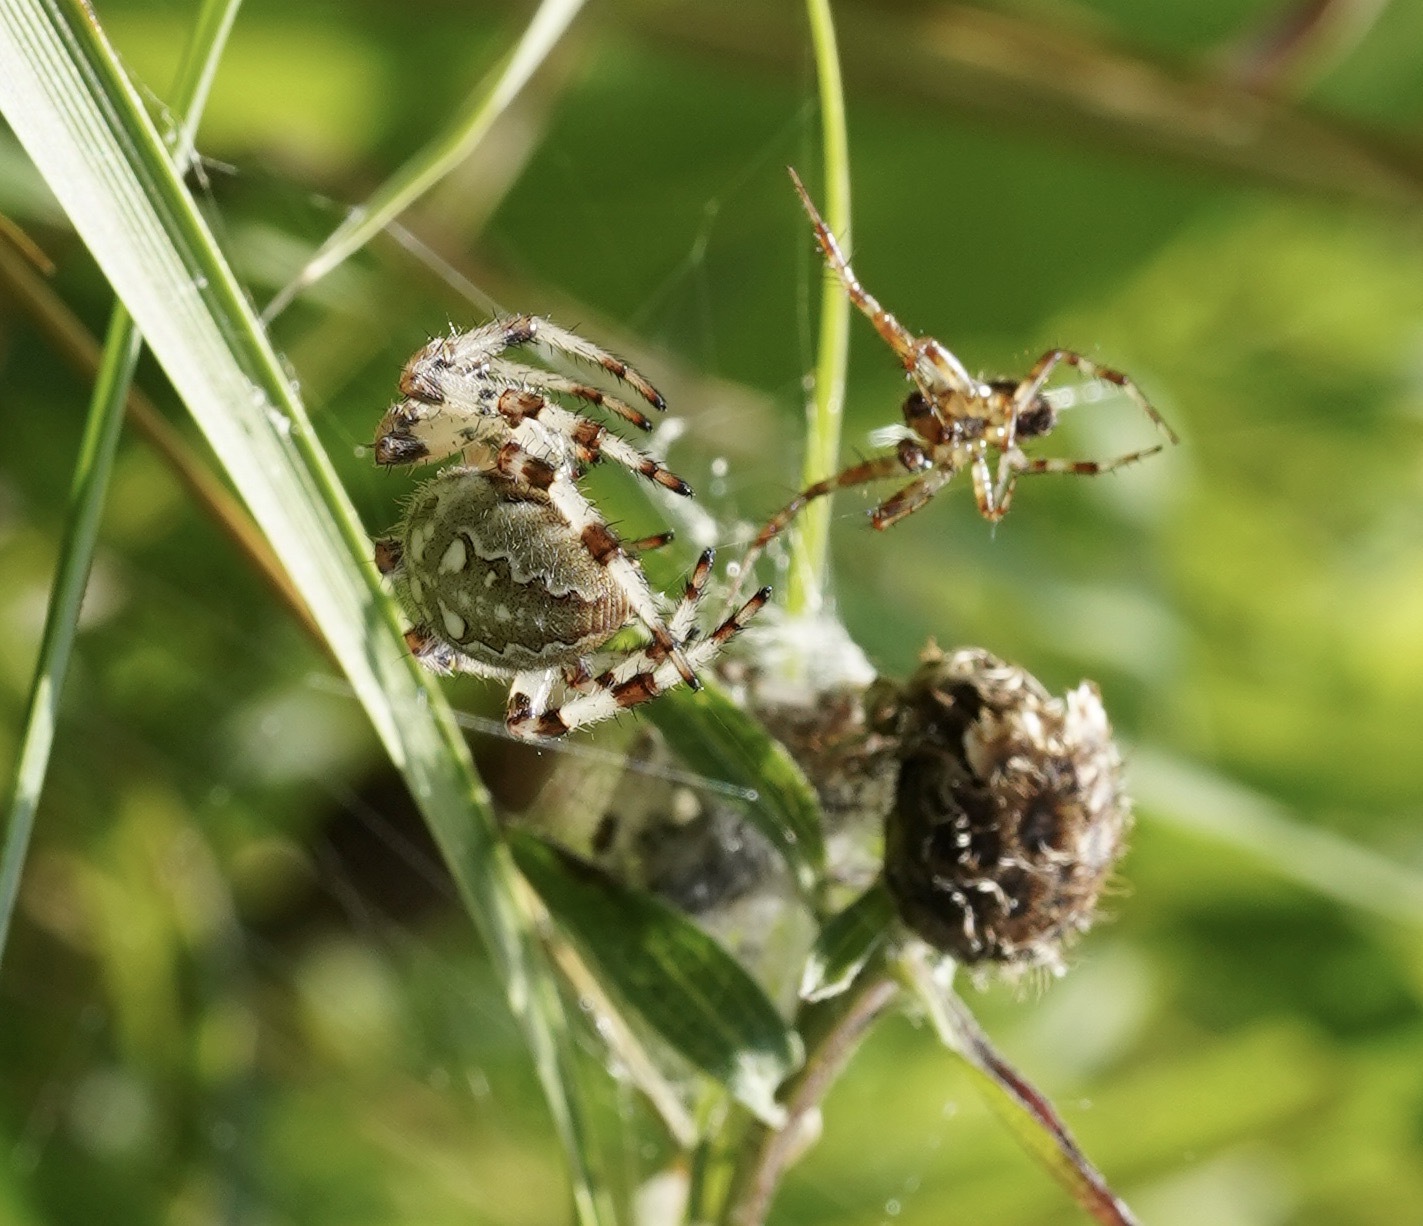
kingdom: Animalia
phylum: Arthropoda
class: Arachnida
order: Araneae
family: Araneidae
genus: Araneus
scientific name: Araneus quadratus
